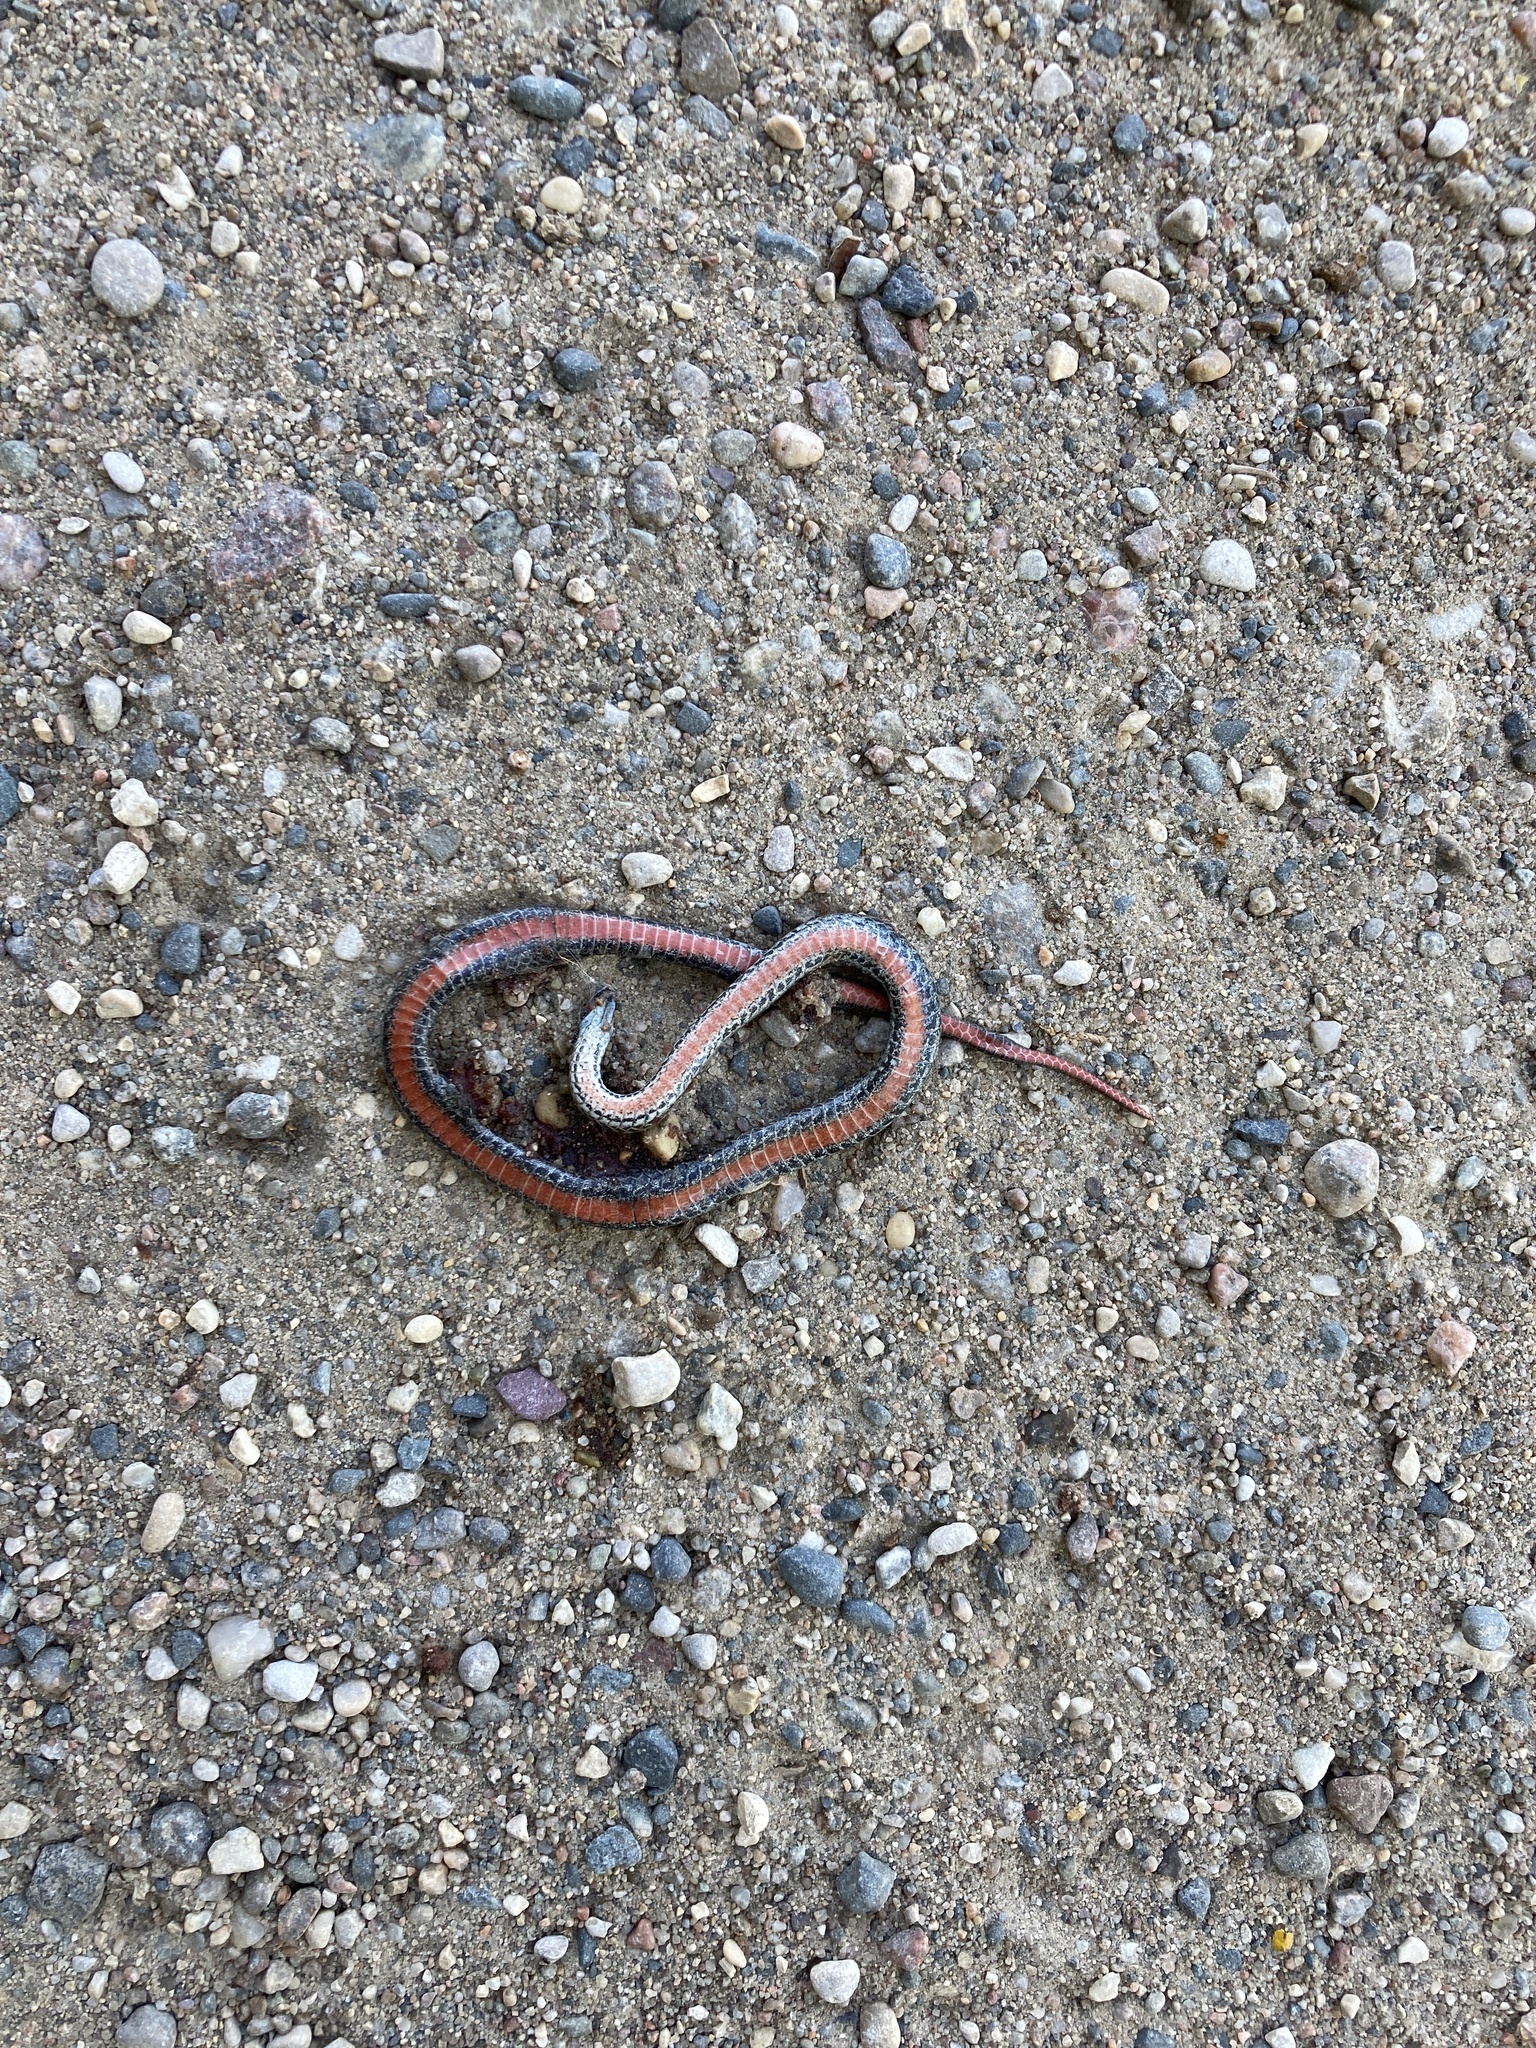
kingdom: Animalia
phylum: Chordata
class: Squamata
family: Colubridae
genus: Storeria
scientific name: Storeria occipitomaculata
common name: Redbelly snake
